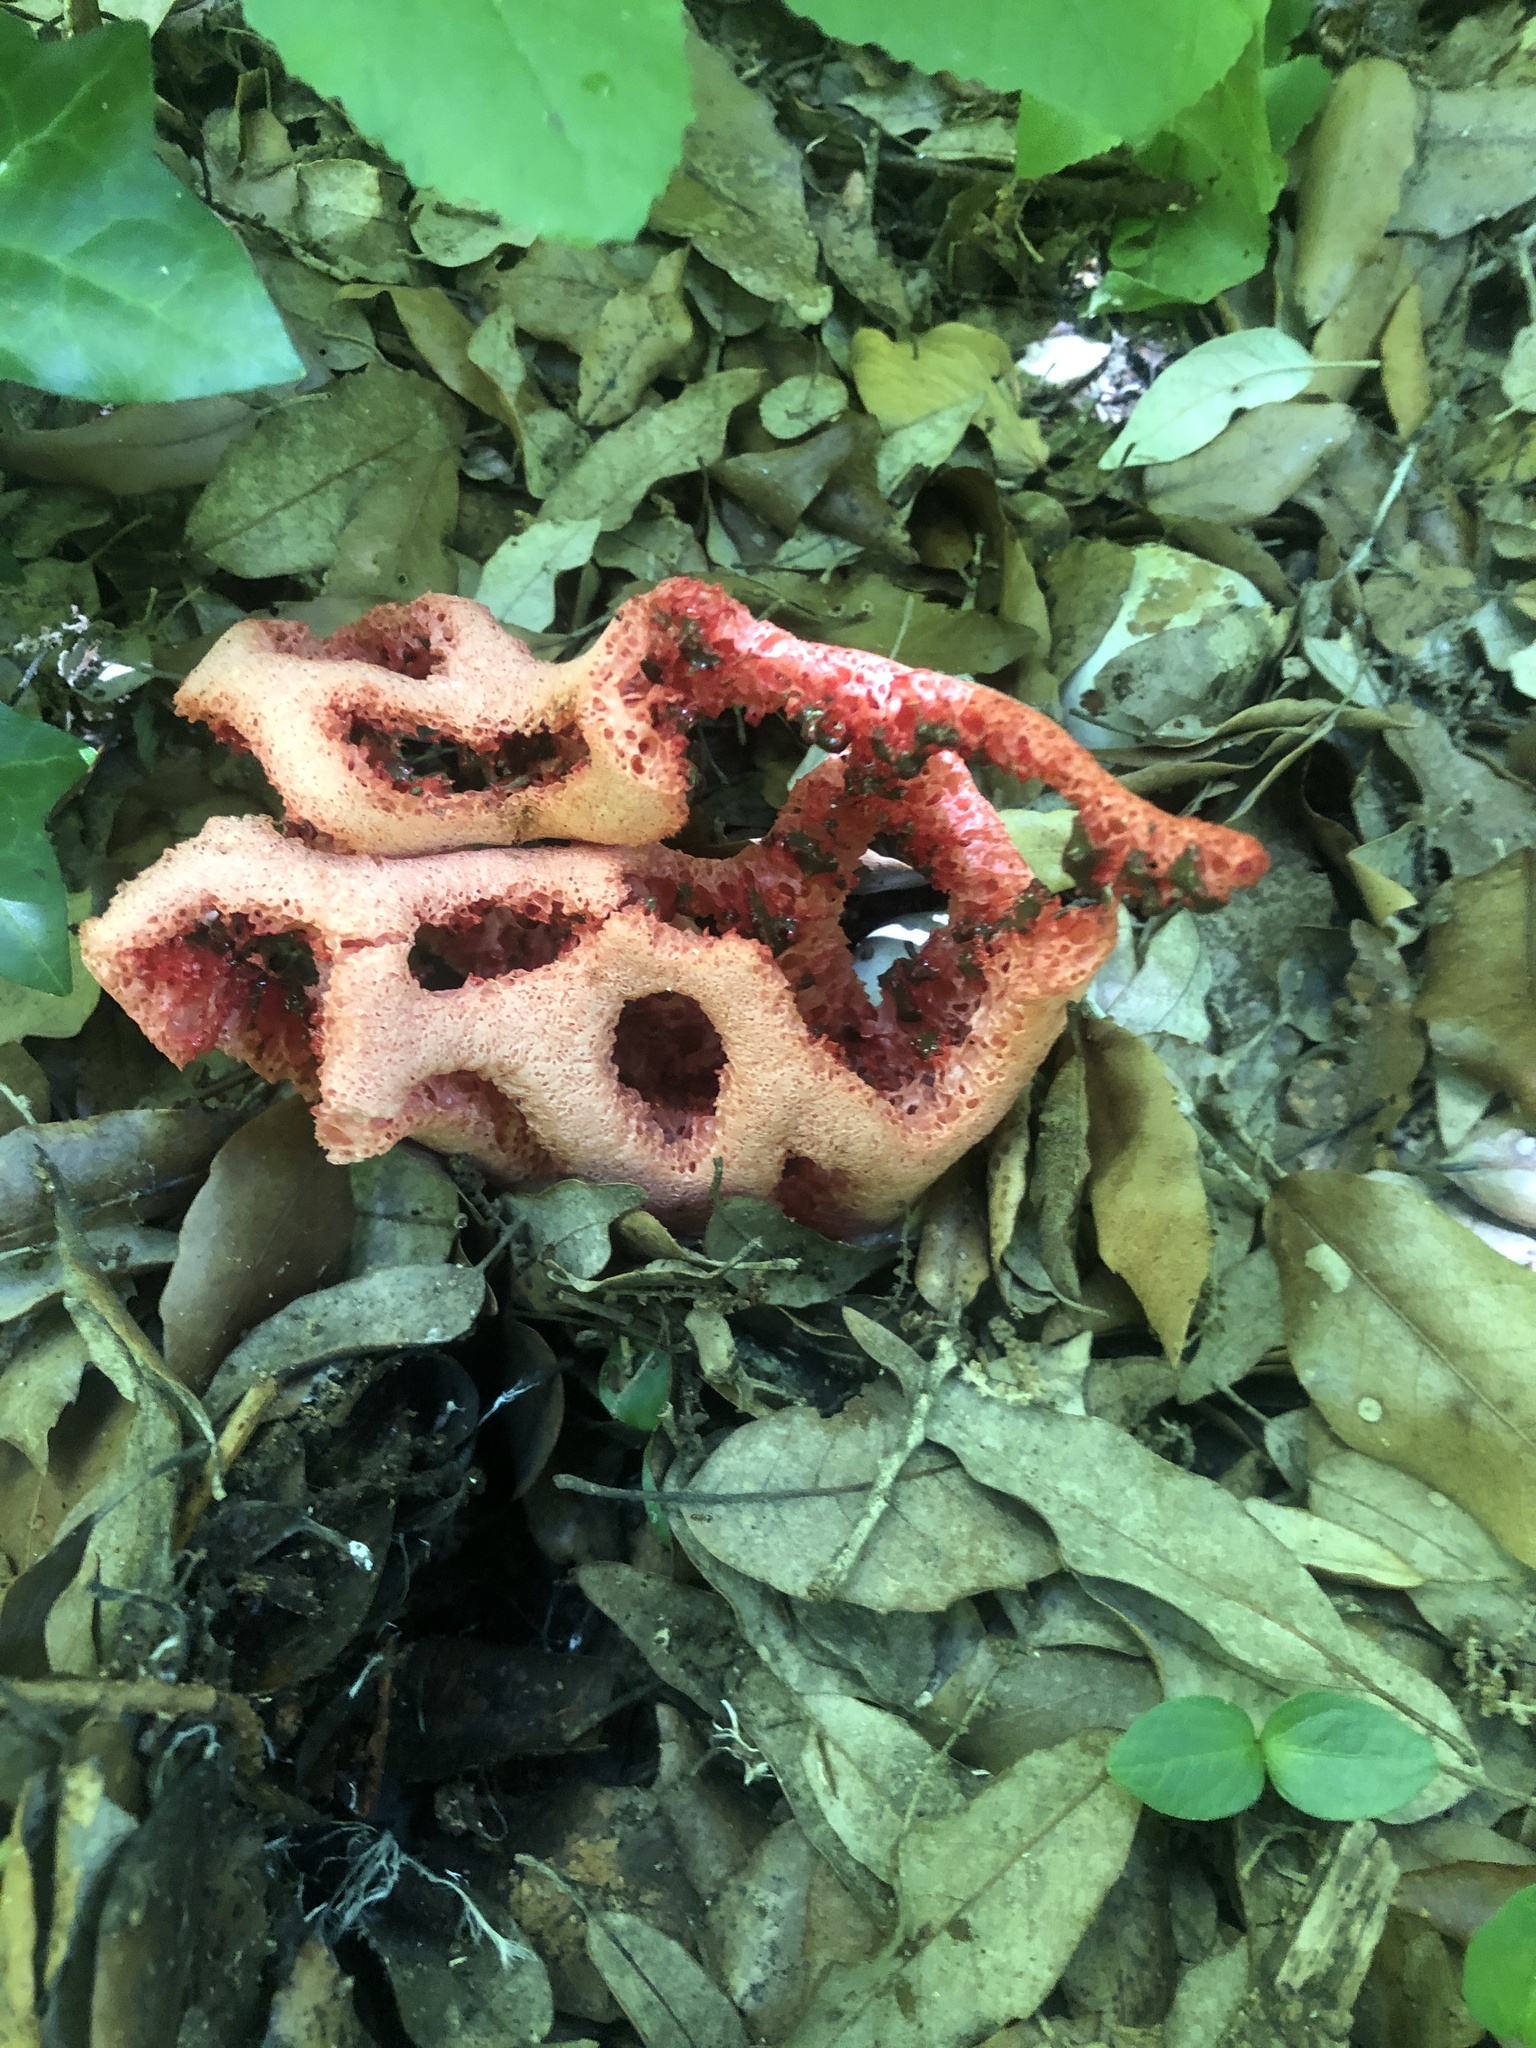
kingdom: Fungi
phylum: Basidiomycota
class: Agaricomycetes
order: Phallales
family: Phallaceae
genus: Clathrus
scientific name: Clathrus ruber
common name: Red cage
